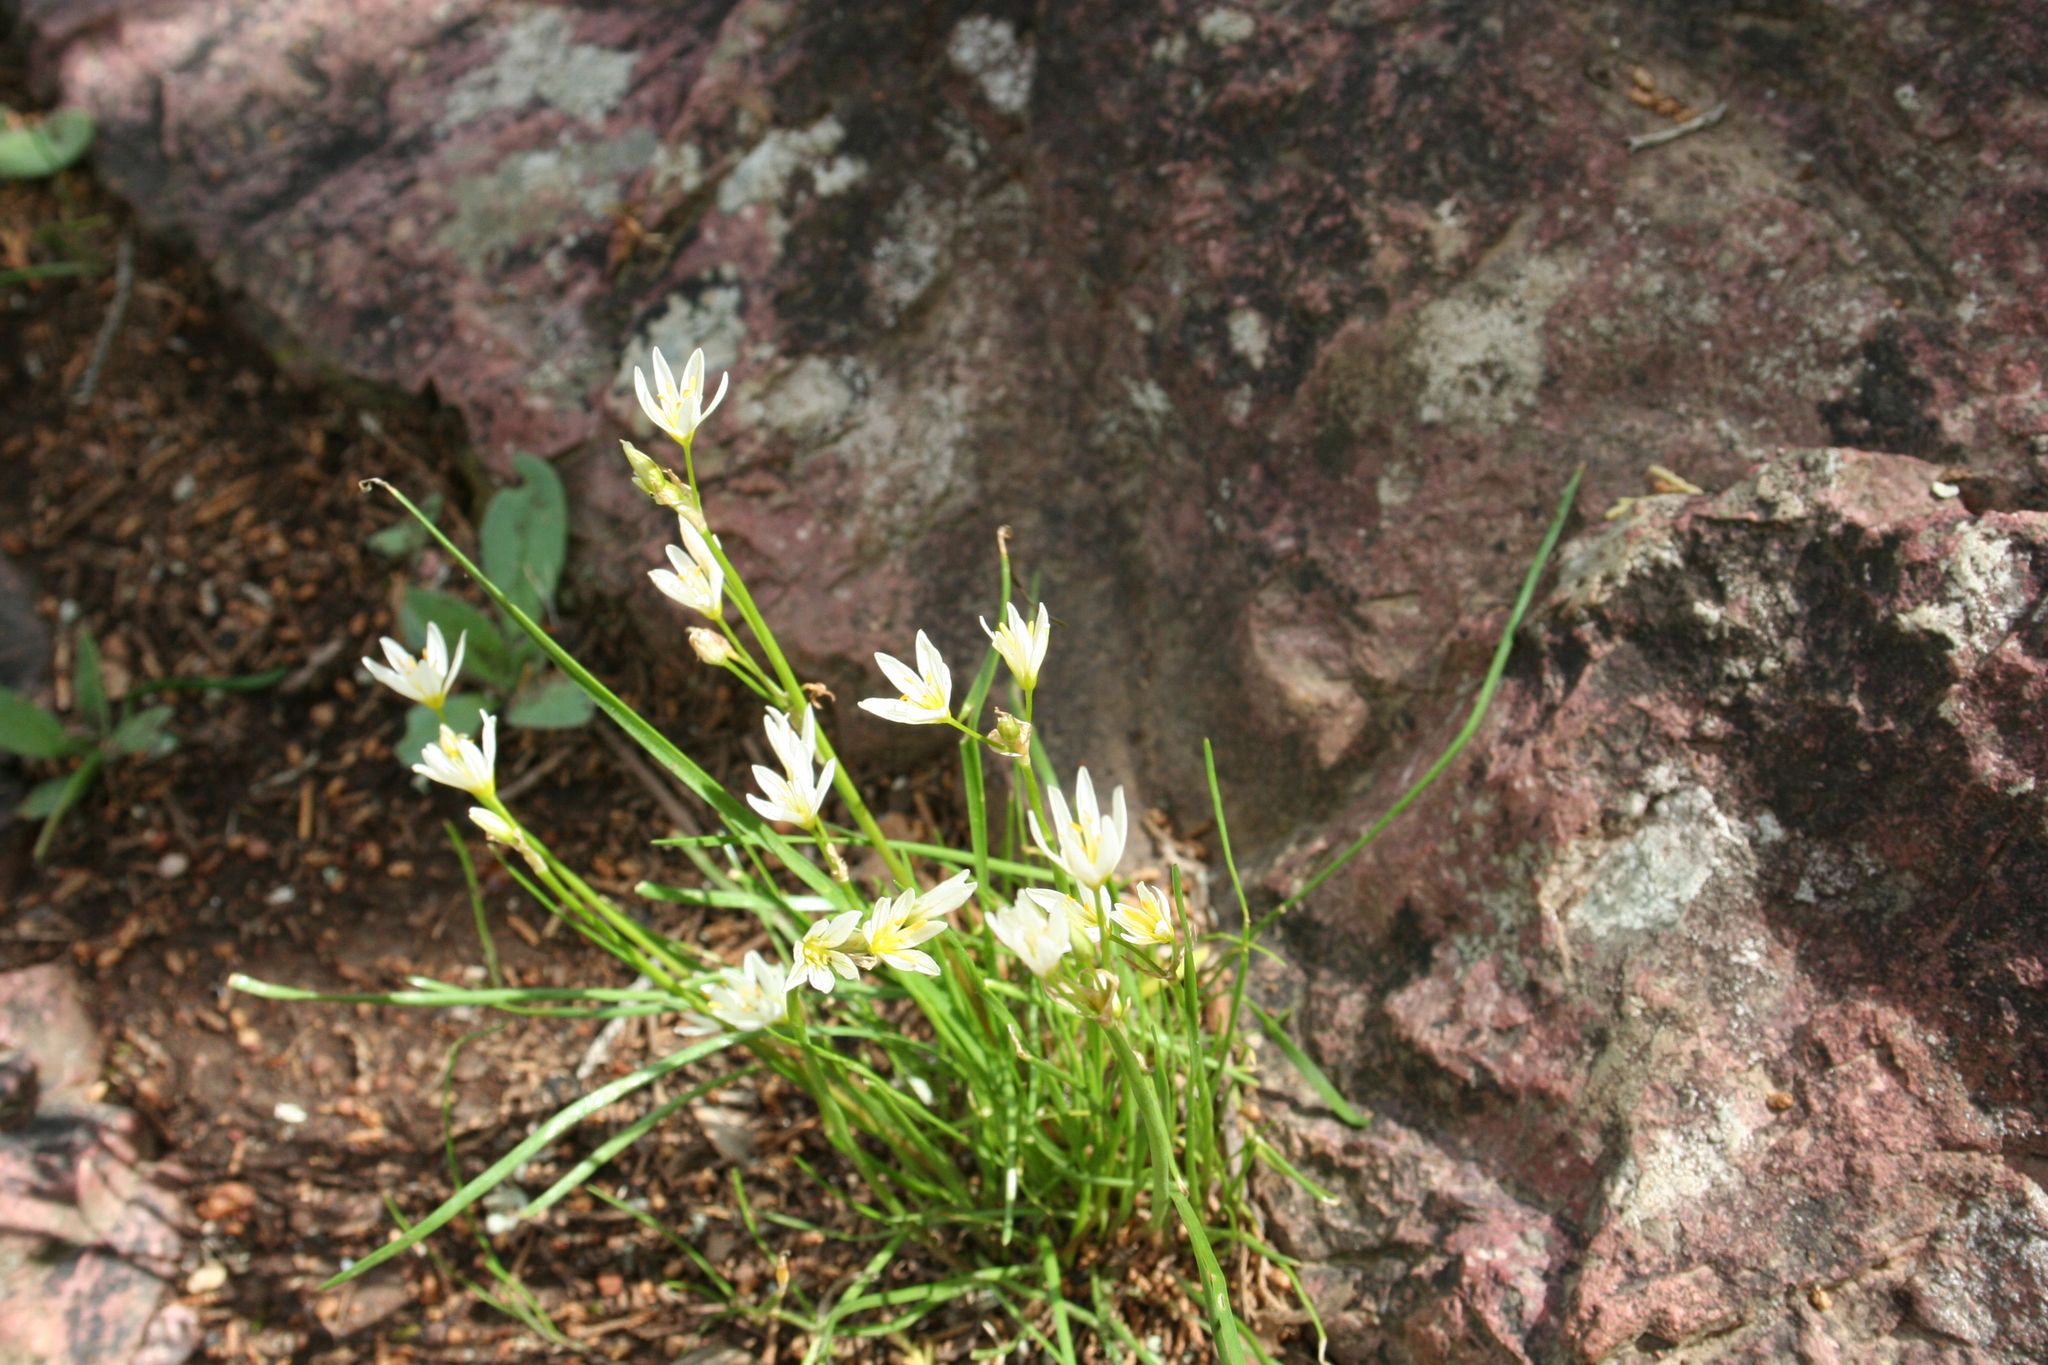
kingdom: Plantae
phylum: Tracheophyta
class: Liliopsida
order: Asparagales
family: Amaryllidaceae
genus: Nothoscordum
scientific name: Nothoscordum bivalve
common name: Crow-poison
